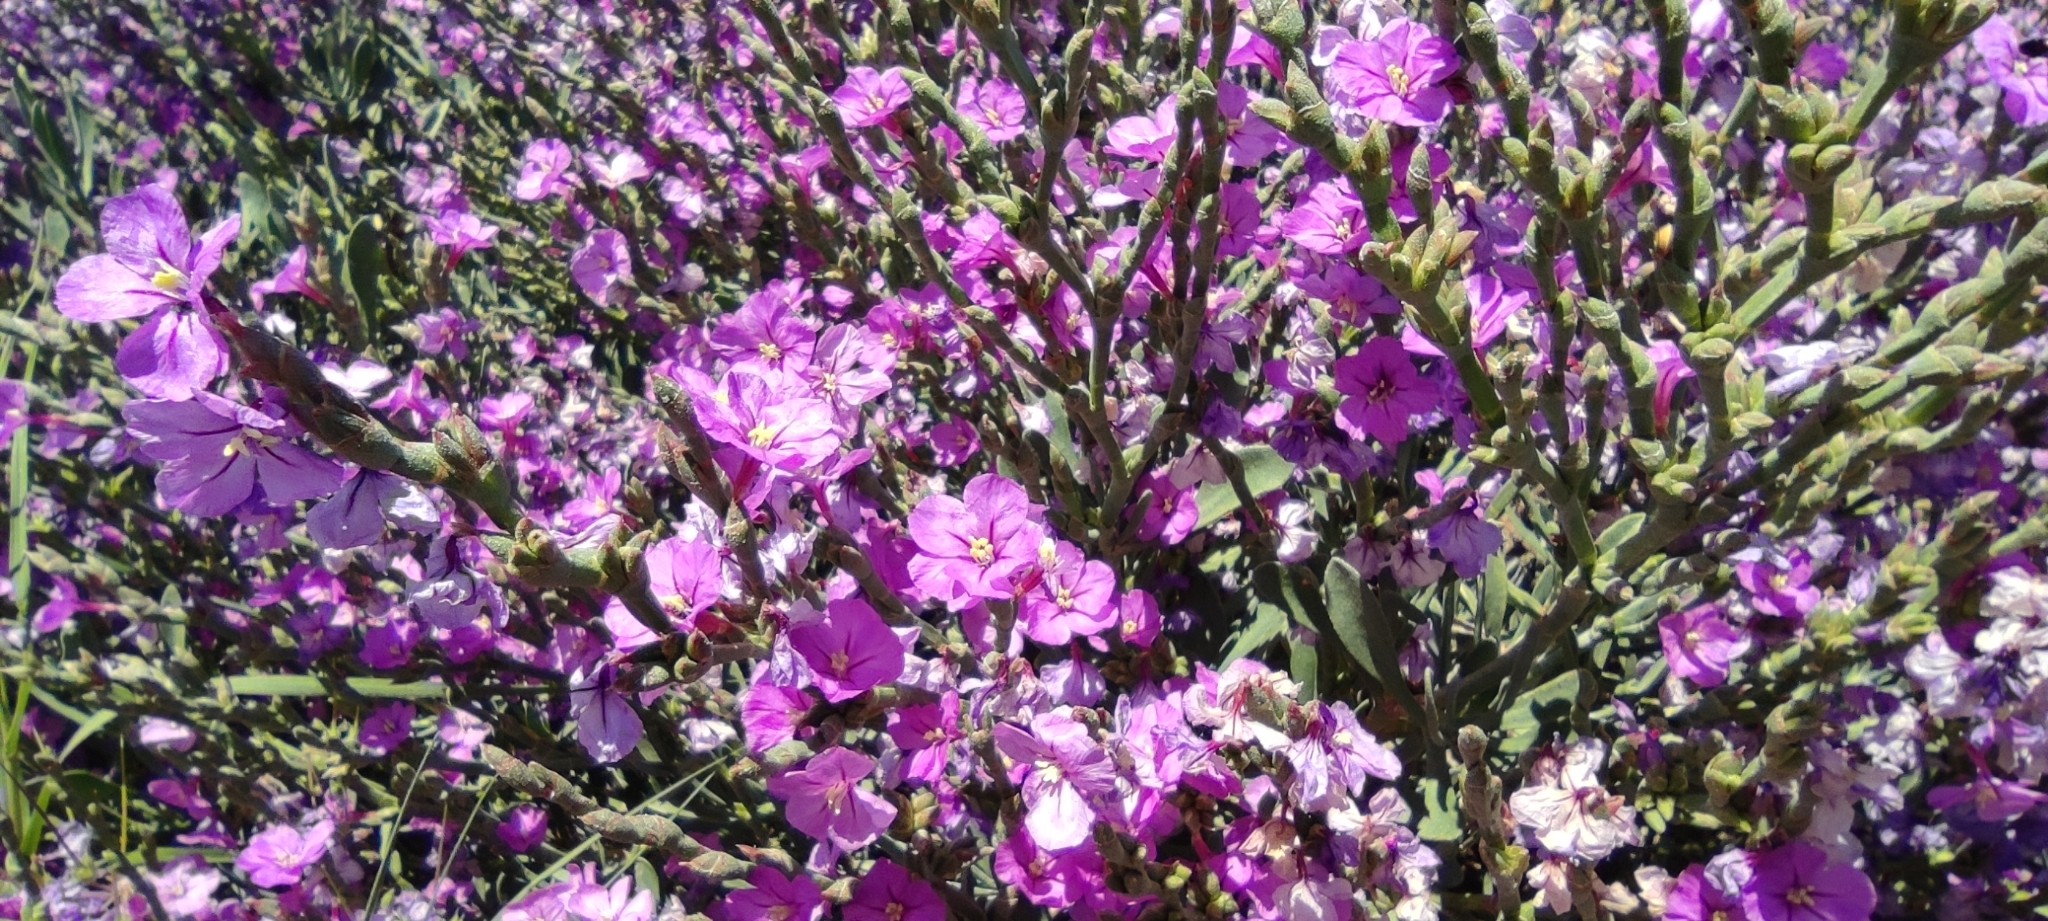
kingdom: Plantae
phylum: Tracheophyta
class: Magnoliopsida
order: Caryophyllales
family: Plumbaginaceae
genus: Limoniastrum
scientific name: Limoniastrum monopetalum
